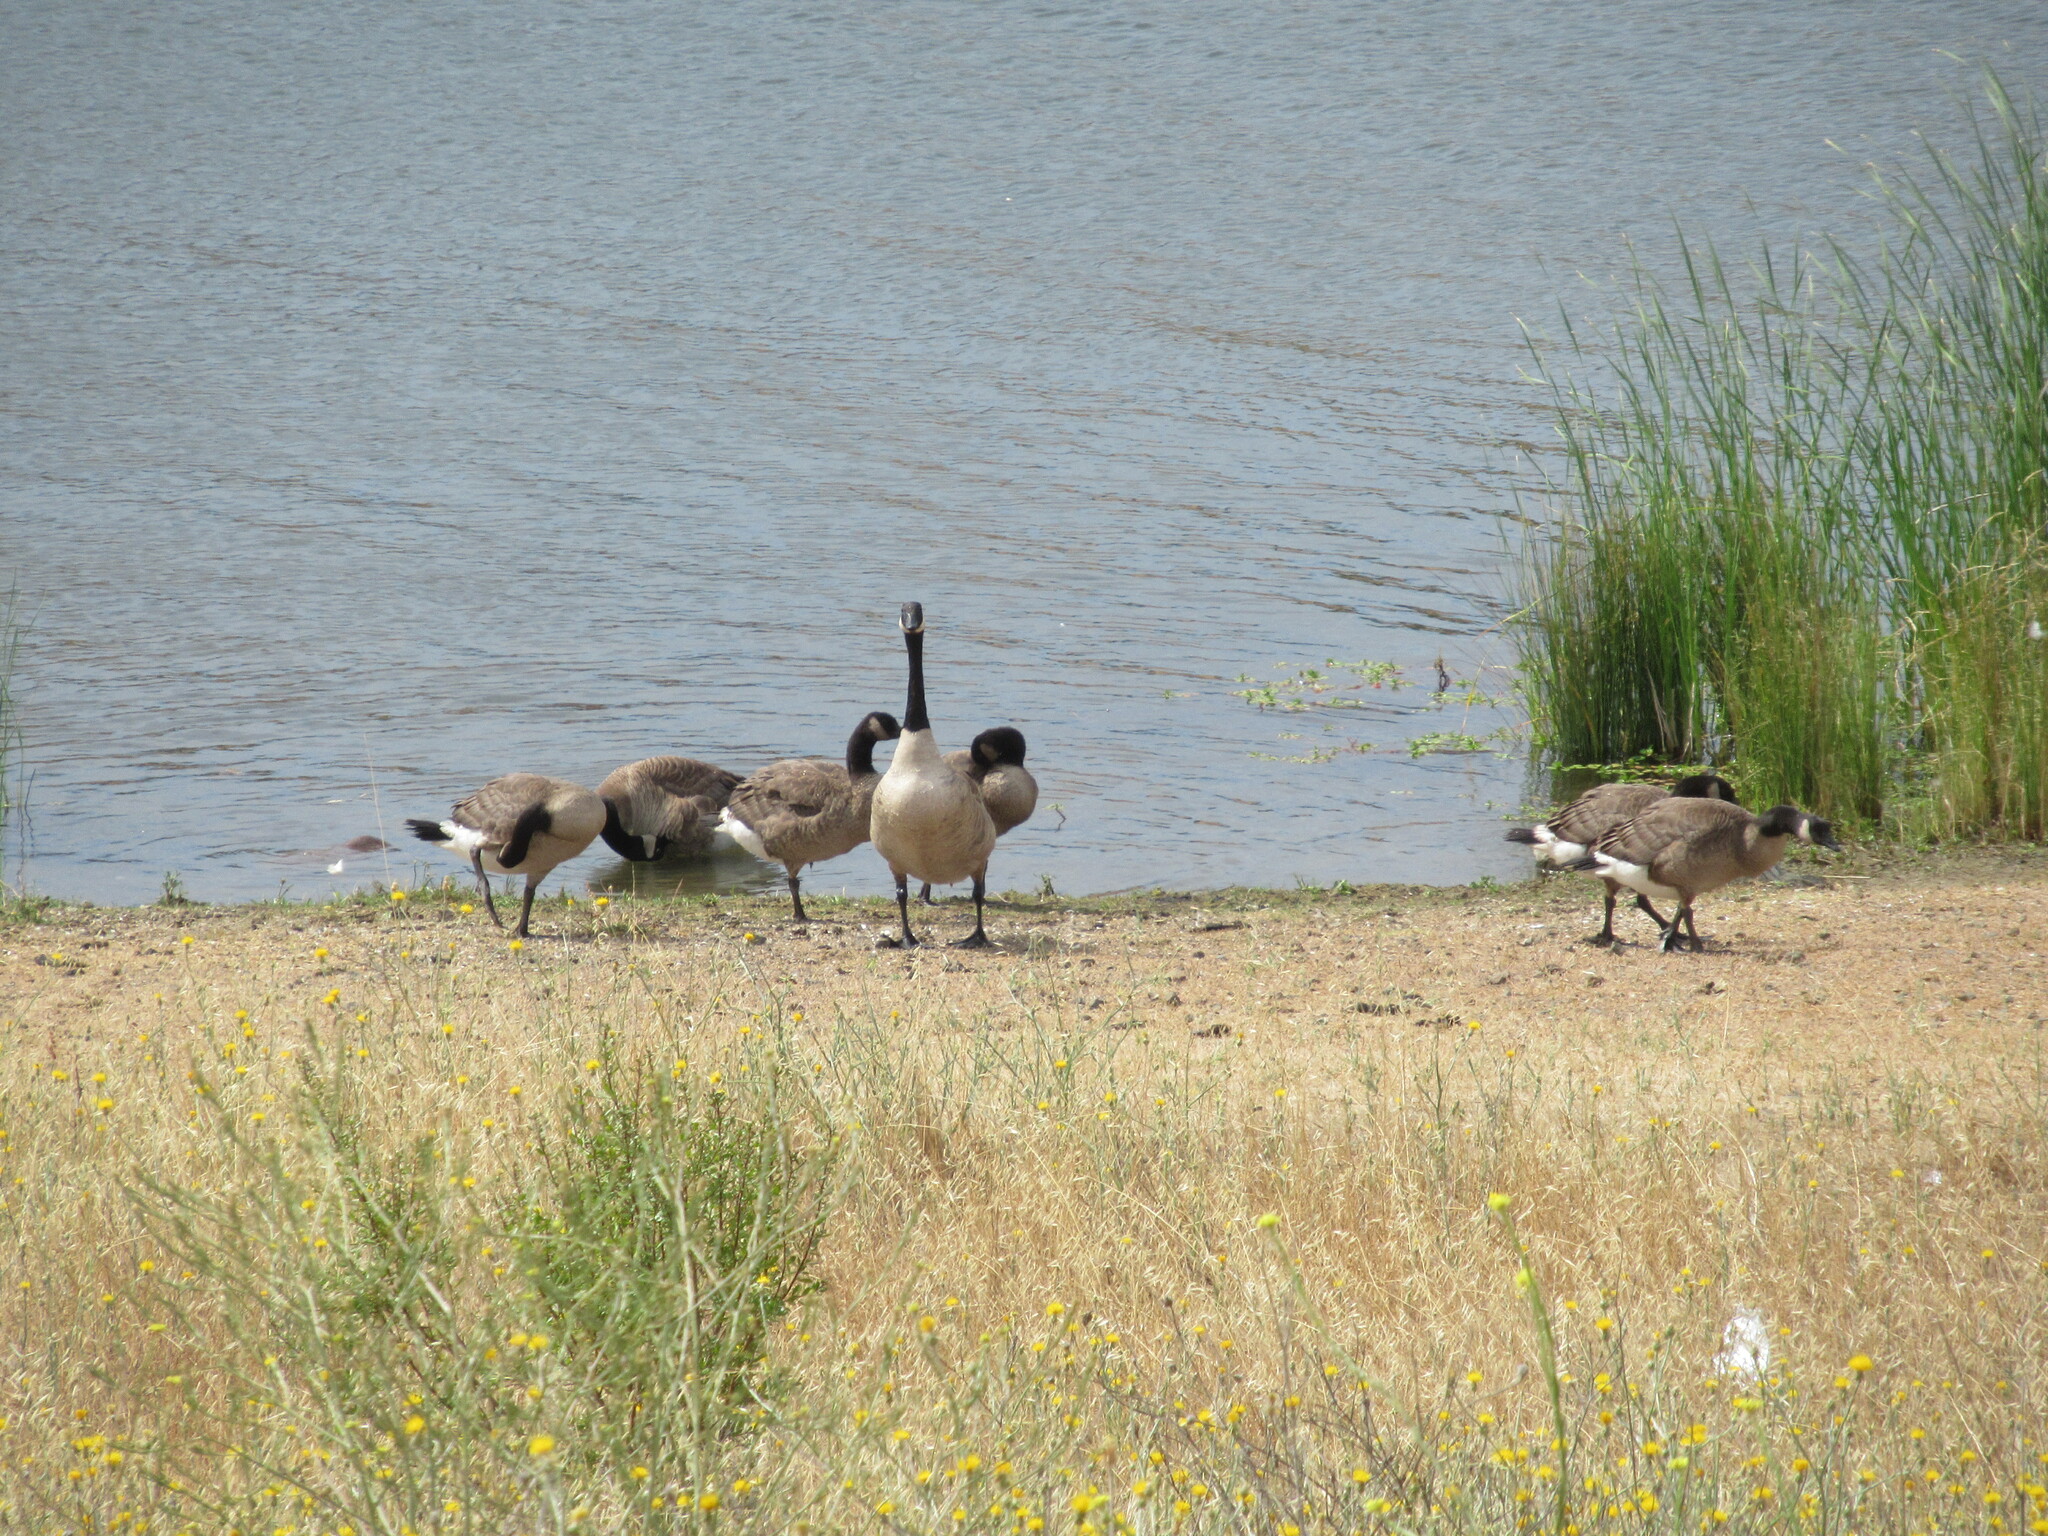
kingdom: Animalia
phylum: Chordata
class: Aves
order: Anseriformes
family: Anatidae
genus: Branta
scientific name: Branta canadensis
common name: Canada goose
